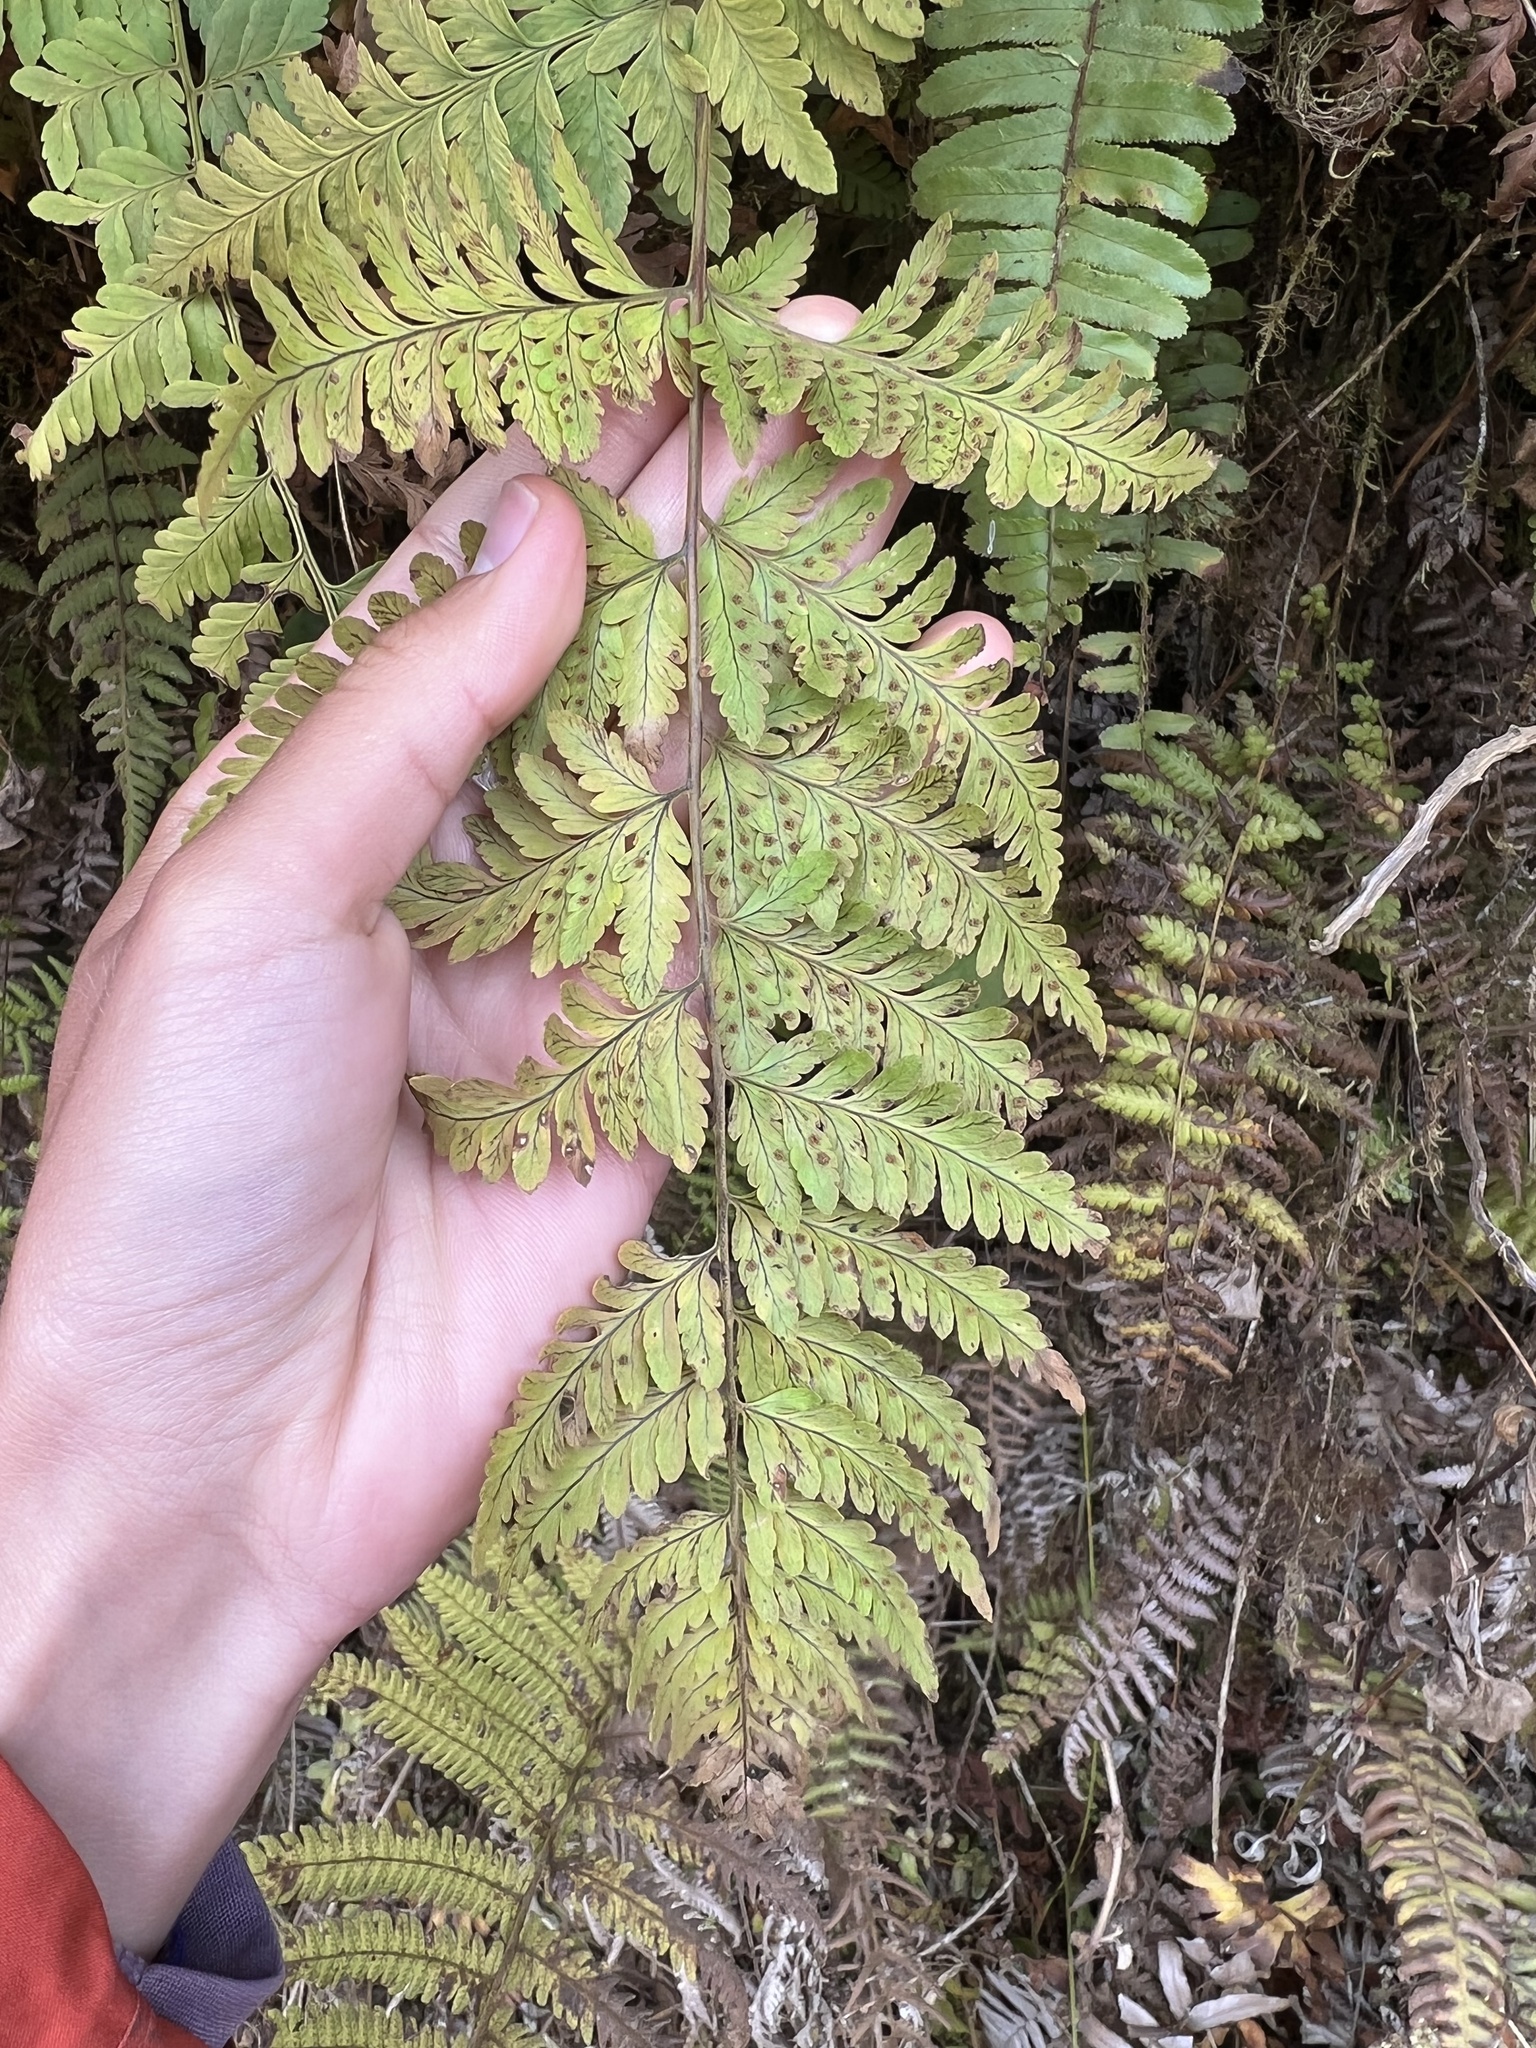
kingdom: Plantae
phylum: Tracheophyta
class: Polypodiopsida
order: Polypodiales
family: Dryopteridaceae
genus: Rumohra
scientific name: Rumohra adiantiformis
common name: Leather fern
